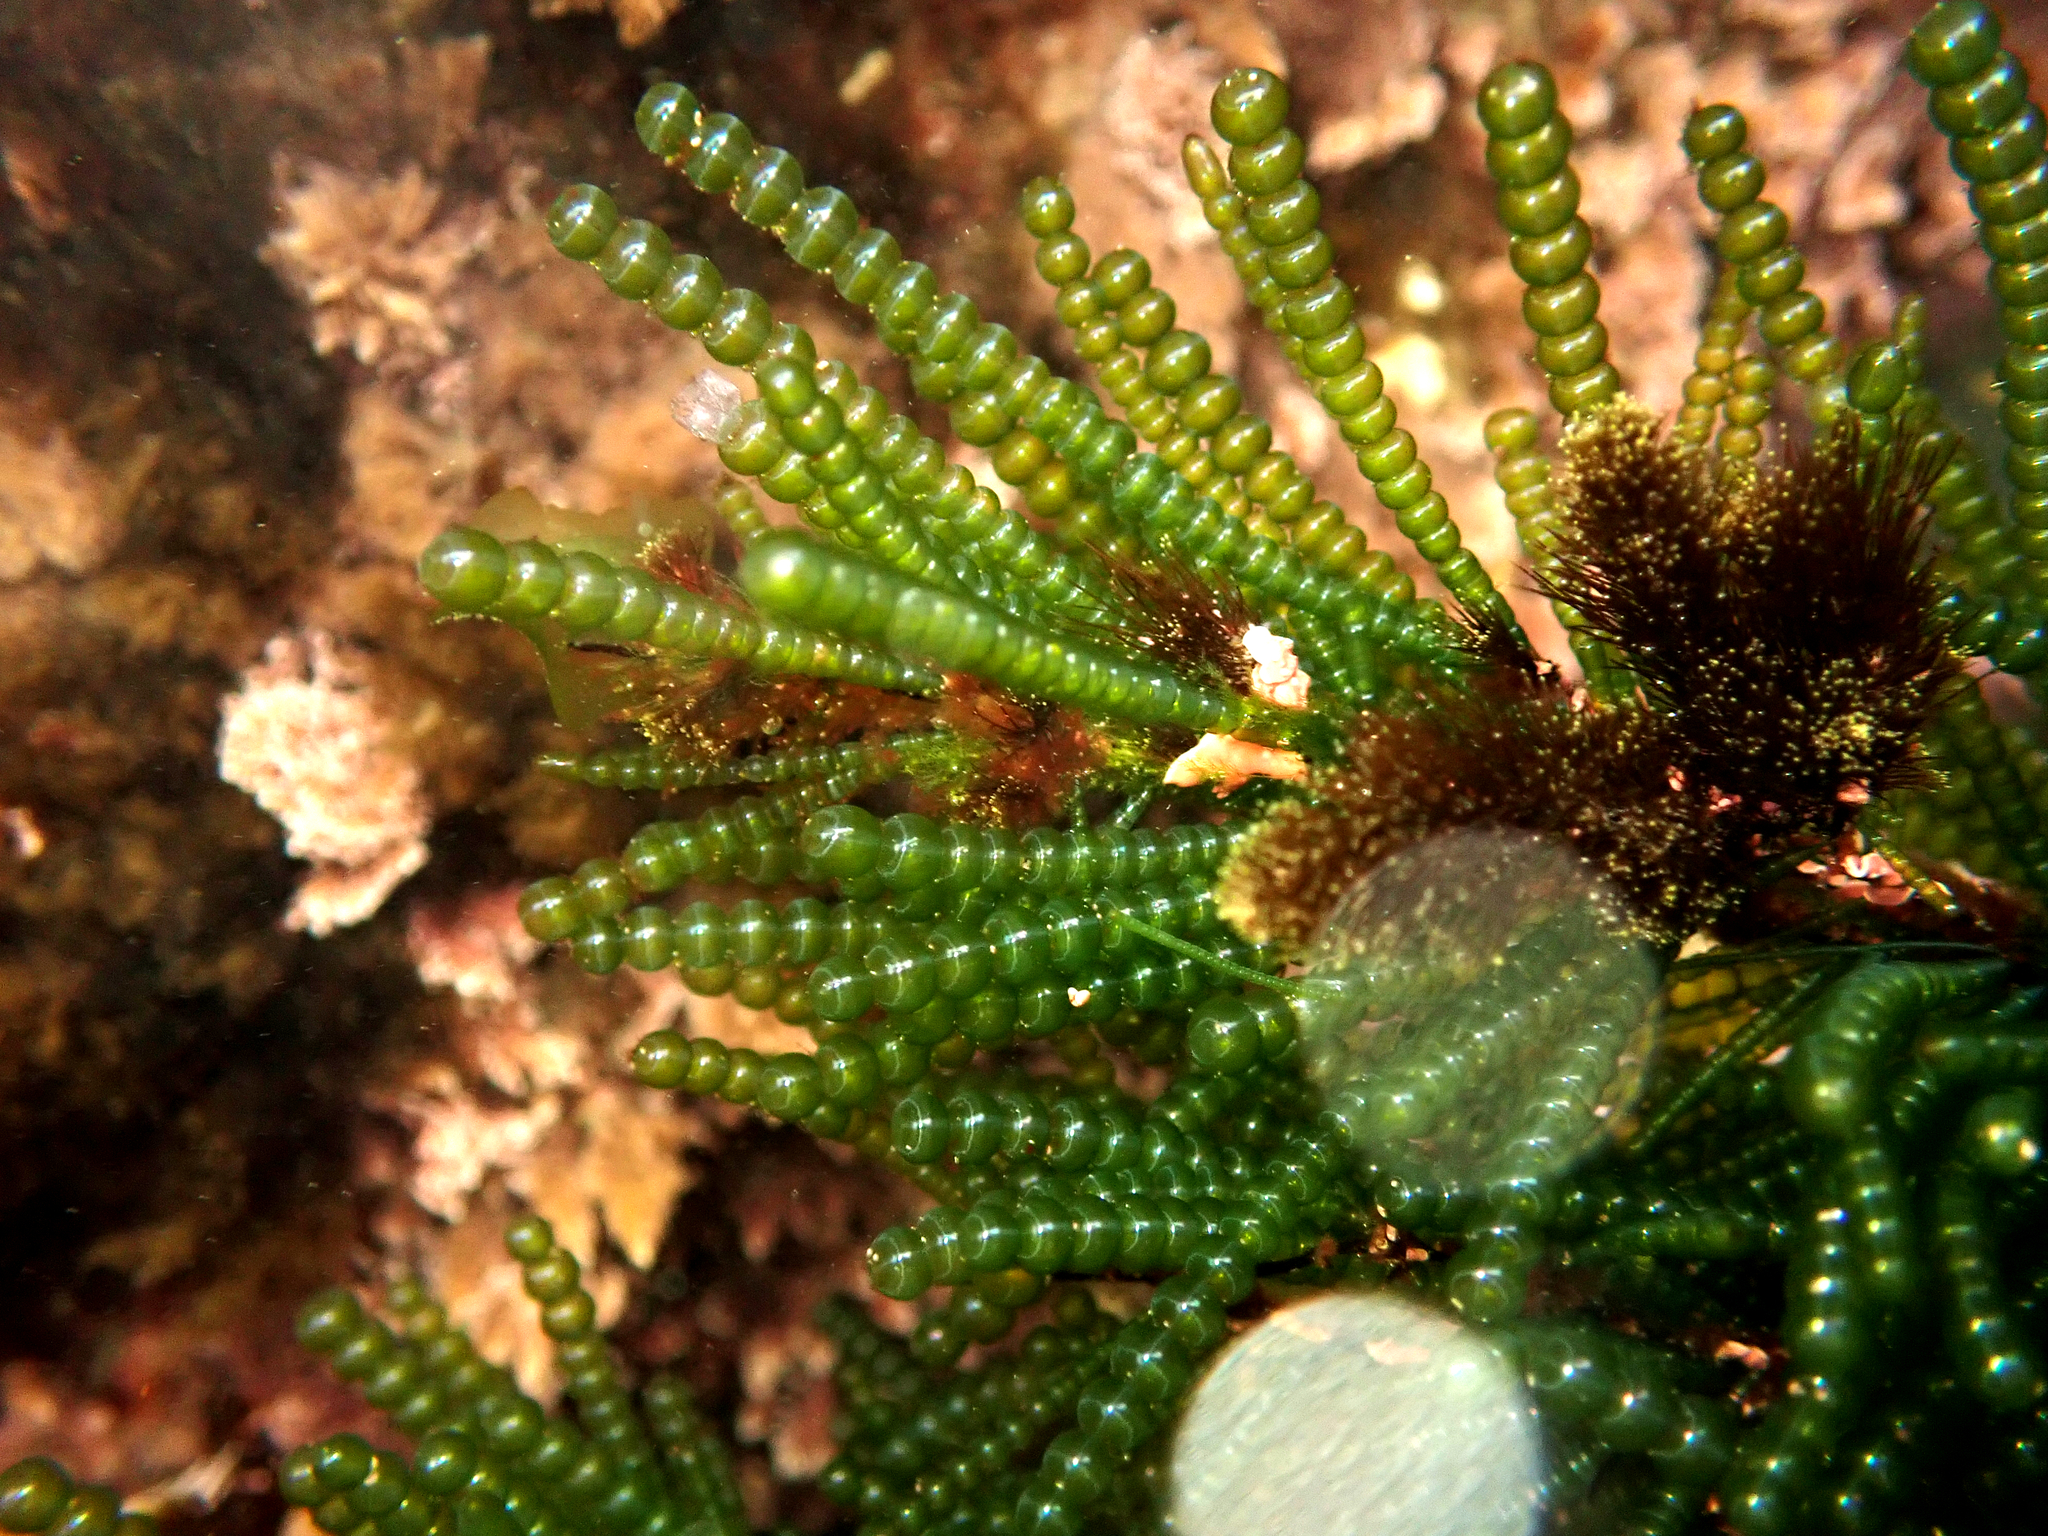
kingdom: Plantae
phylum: Chlorophyta
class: Ulvophyceae
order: Cladophorales
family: Cladophoraceae
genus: Chaetomorpha
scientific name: Chaetomorpha coliformis
